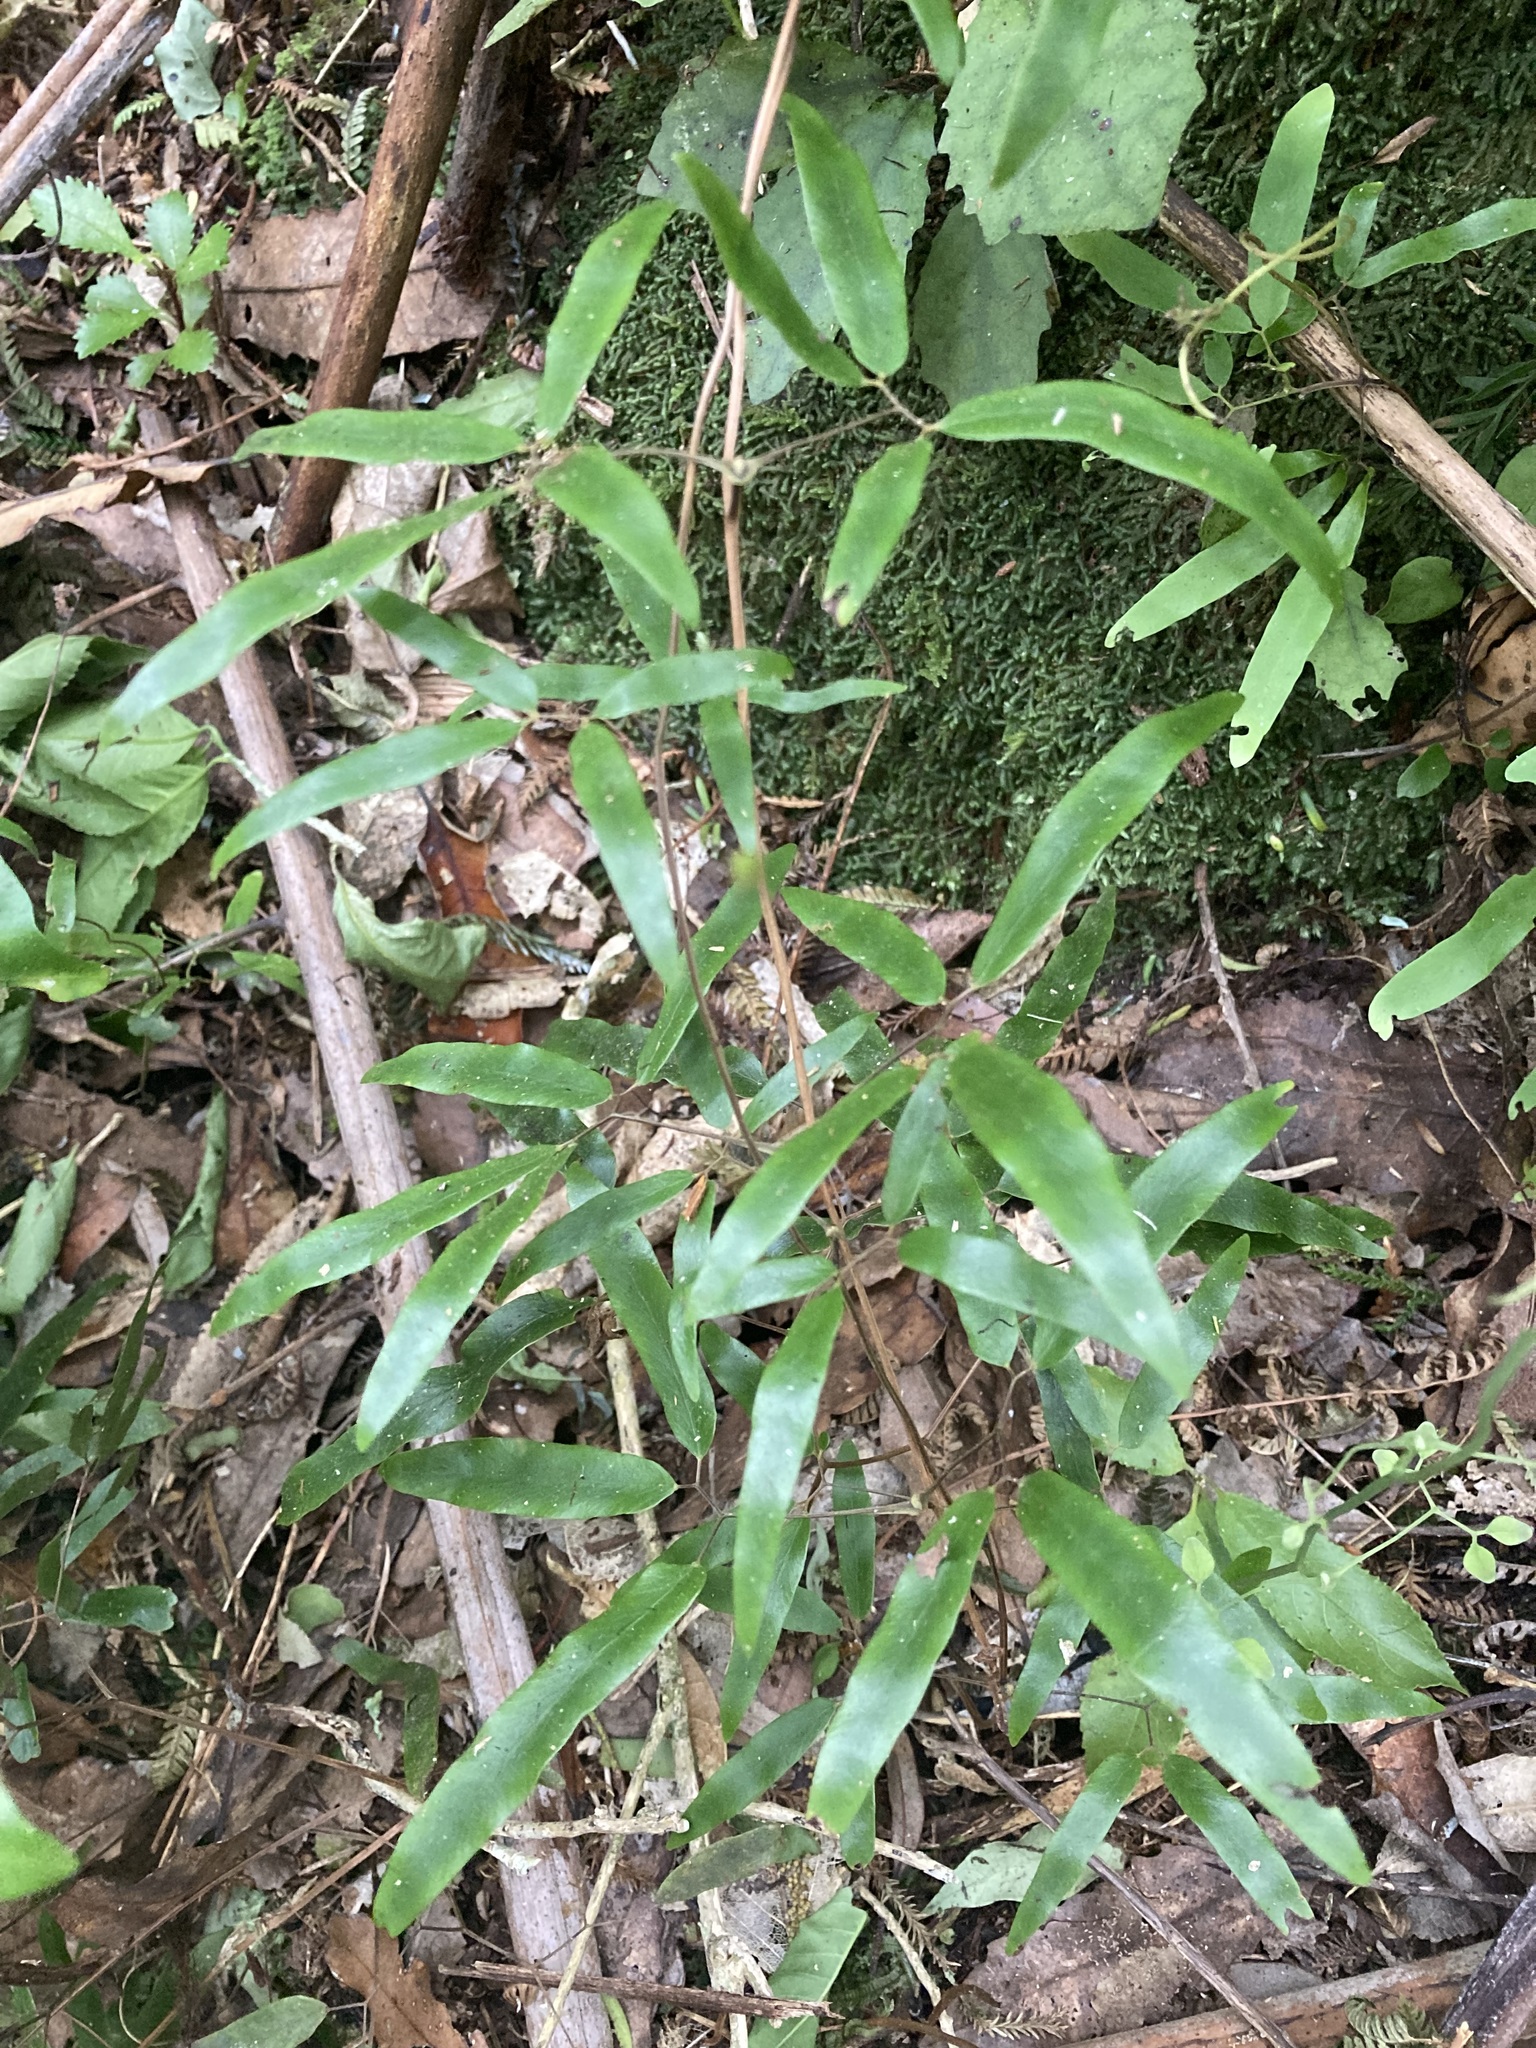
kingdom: Plantae
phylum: Tracheophyta
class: Polypodiopsida
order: Schizaeales
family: Lygodiaceae
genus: Lygodium
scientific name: Lygodium articulatum
